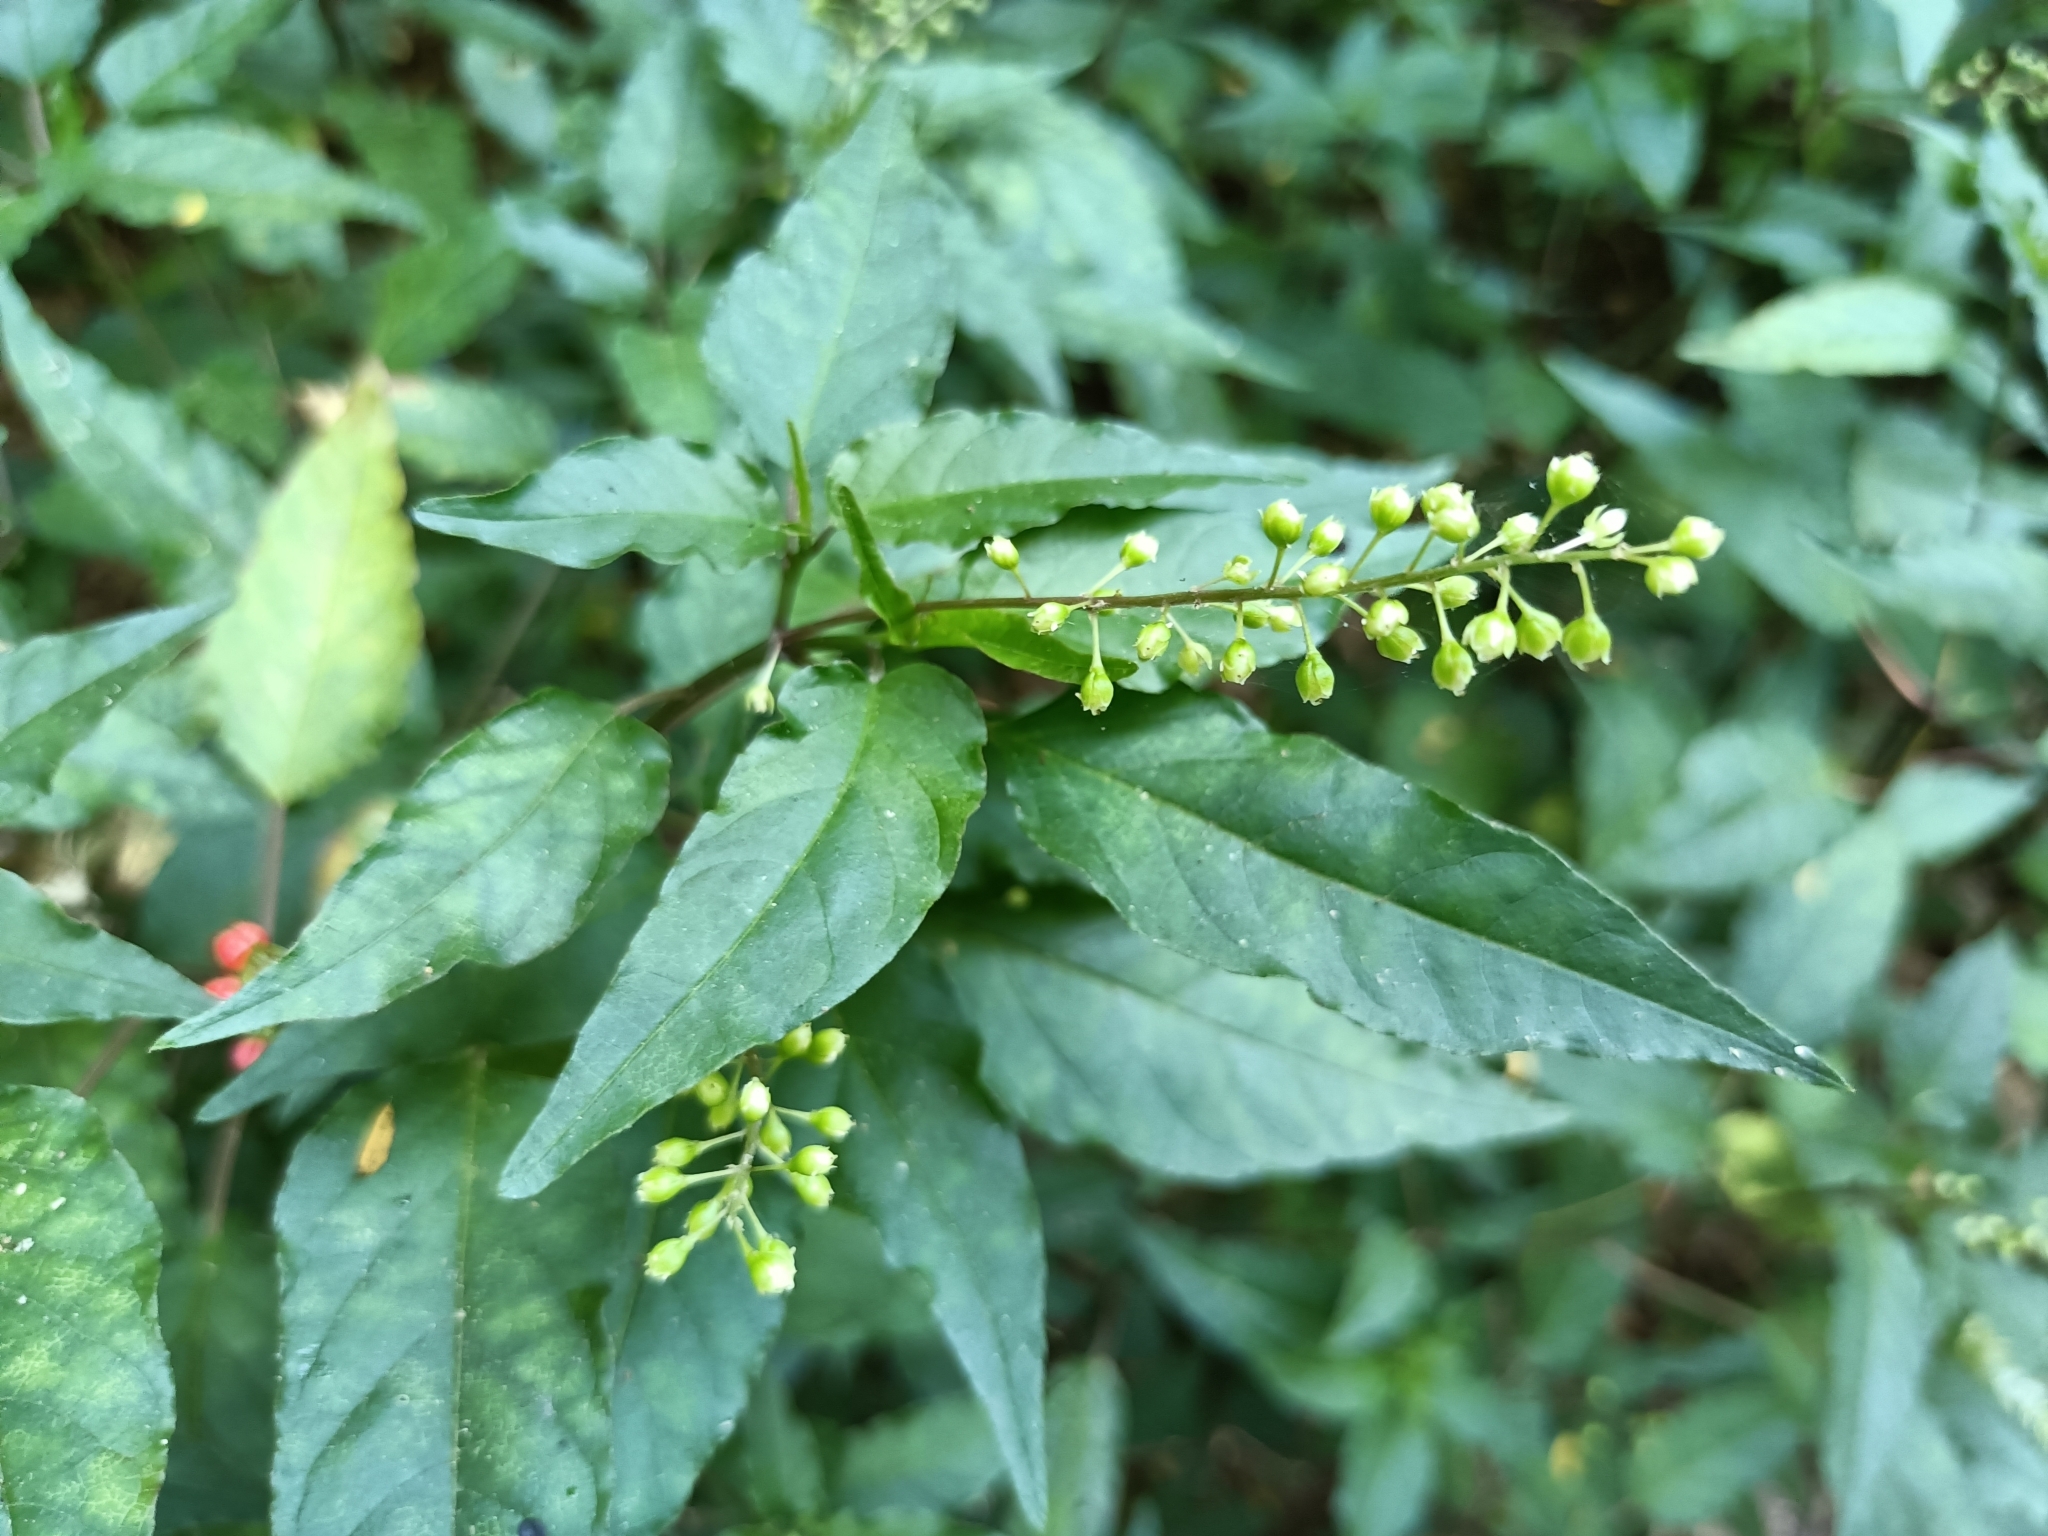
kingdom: Plantae
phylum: Tracheophyta
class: Magnoliopsida
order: Caryophyllales
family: Phytolaccaceae
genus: Rivina
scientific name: Rivina humilis
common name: Rougeplant
